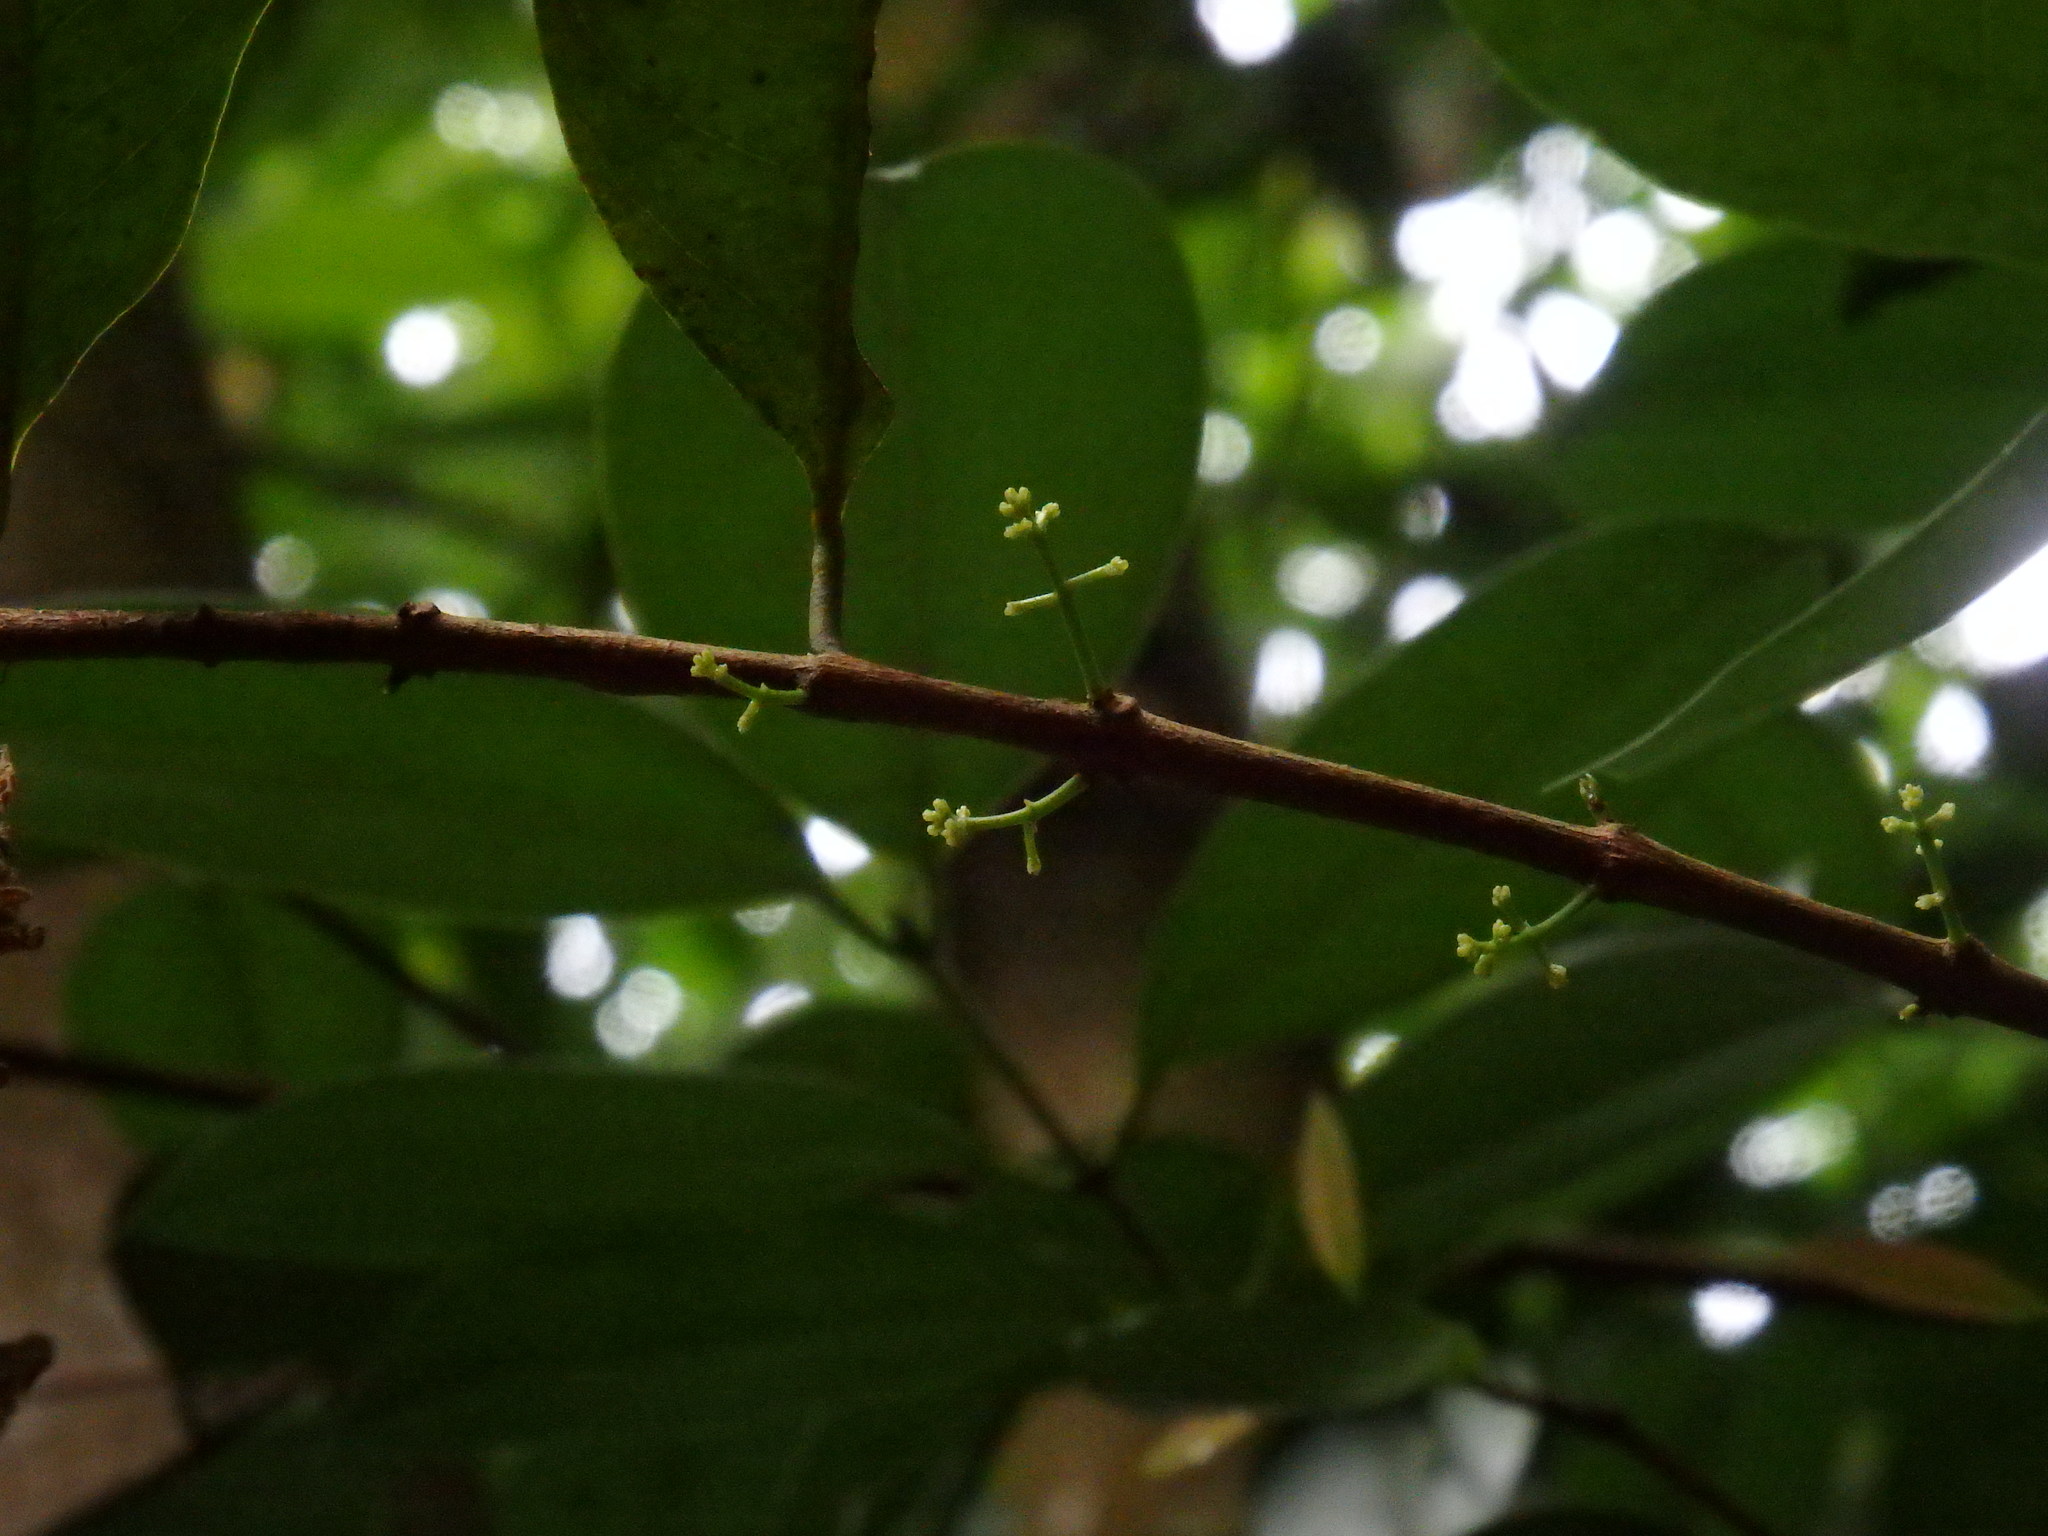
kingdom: Plantae
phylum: Tracheophyta
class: Magnoliopsida
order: Malpighiales
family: Rhizophoraceae
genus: Carallia
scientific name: Carallia brachiata
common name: Carallawood
